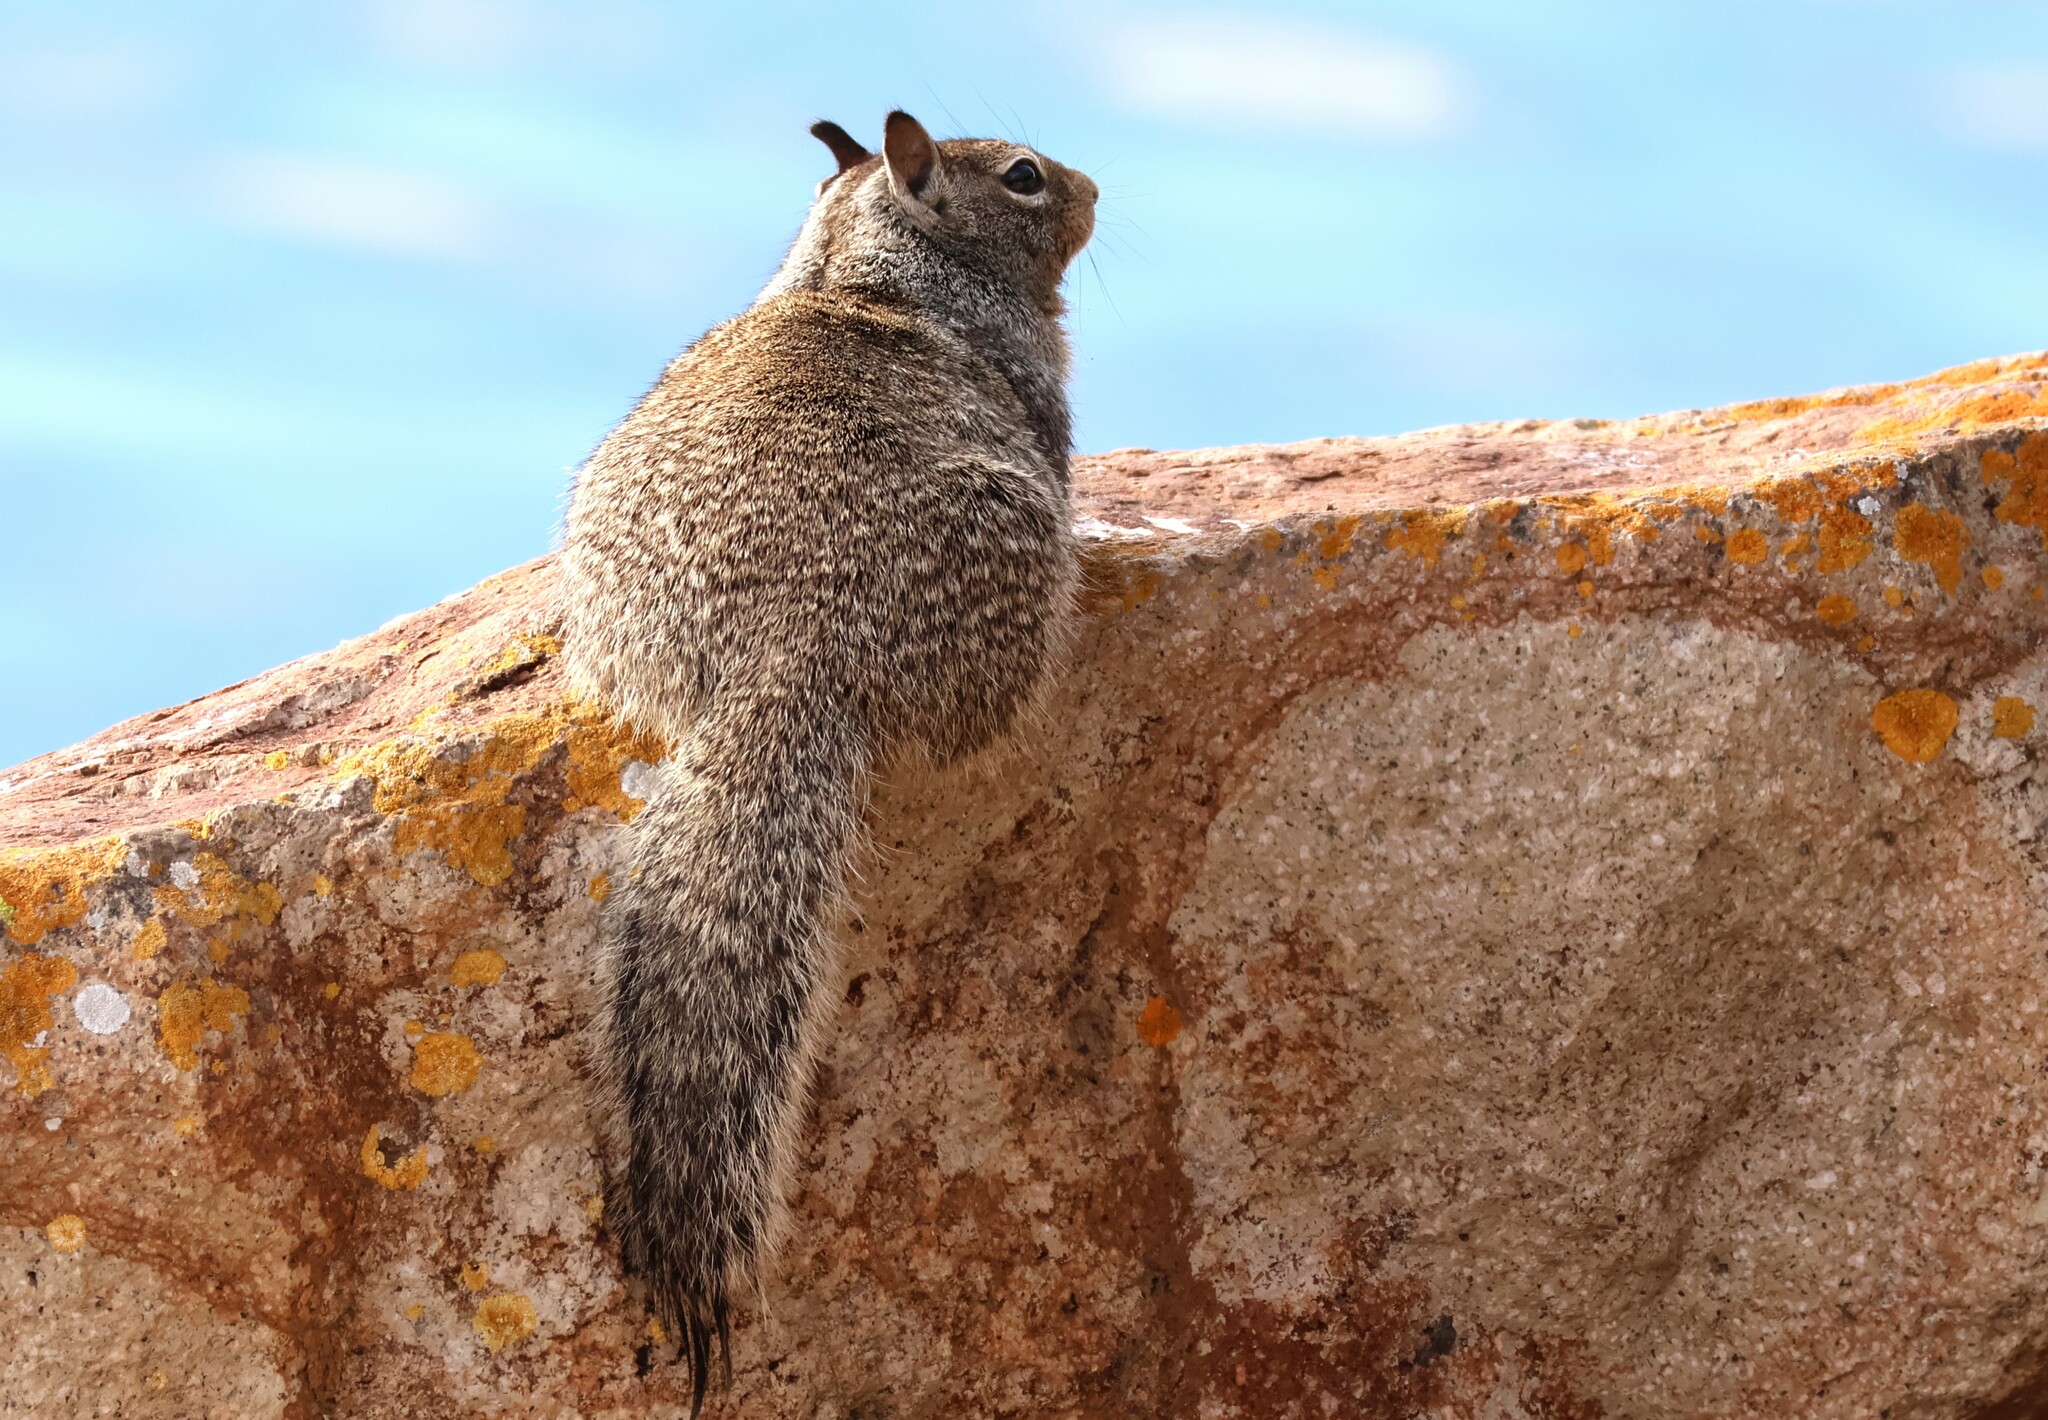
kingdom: Animalia
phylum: Chordata
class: Mammalia
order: Rodentia
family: Sciuridae
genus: Otospermophilus
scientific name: Otospermophilus beecheyi
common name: California ground squirrel
